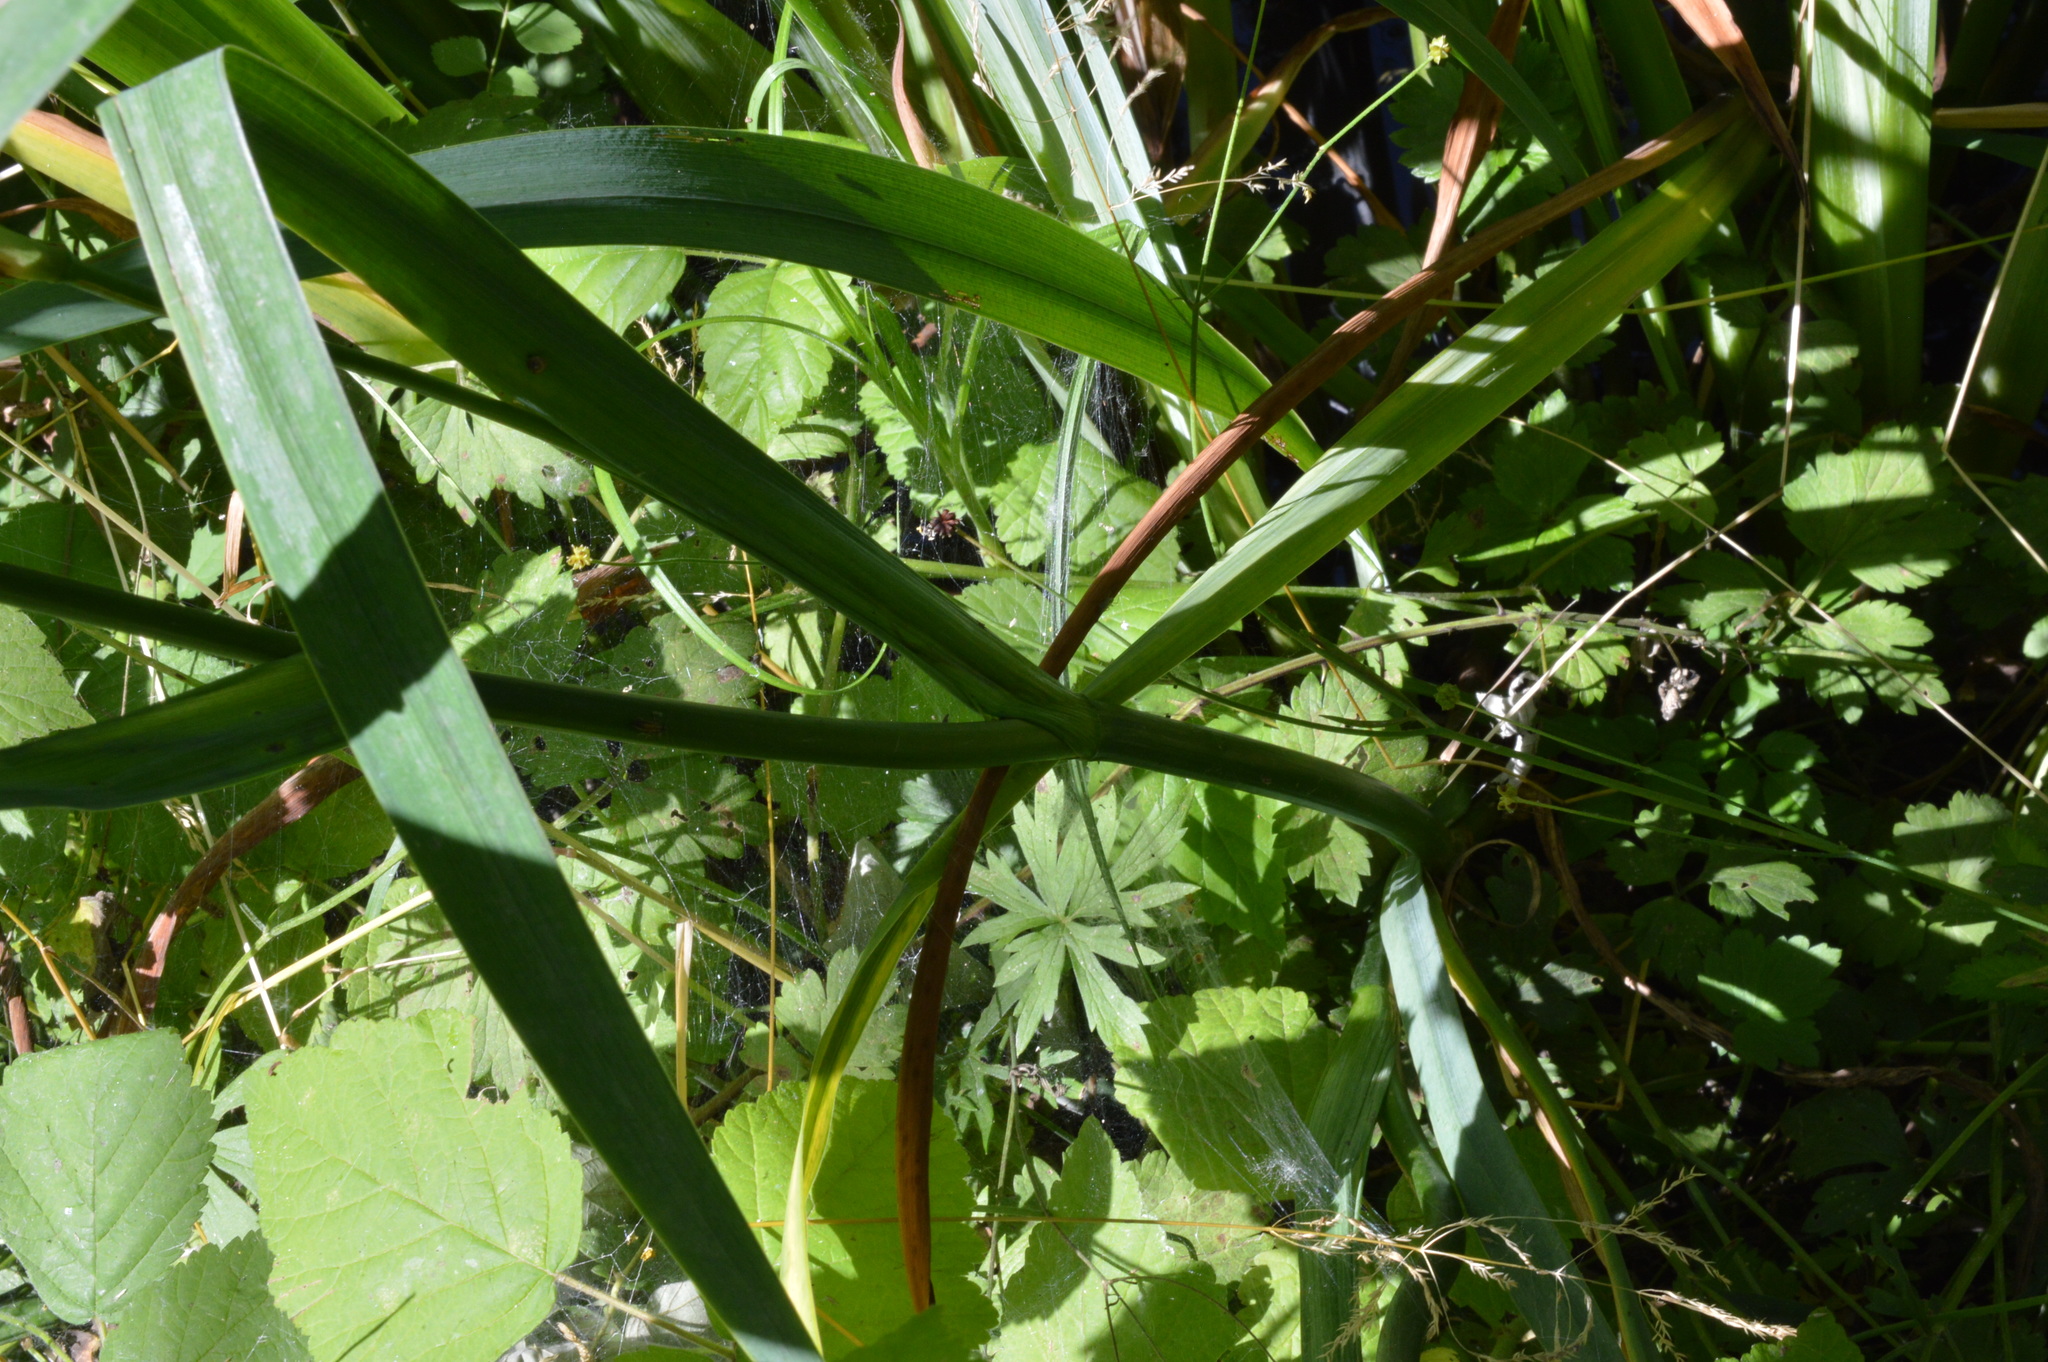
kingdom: Plantae
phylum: Tracheophyta
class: Liliopsida
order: Asparagales
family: Iridaceae
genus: Iris
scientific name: Iris pseudacorus
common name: Yellow flag
